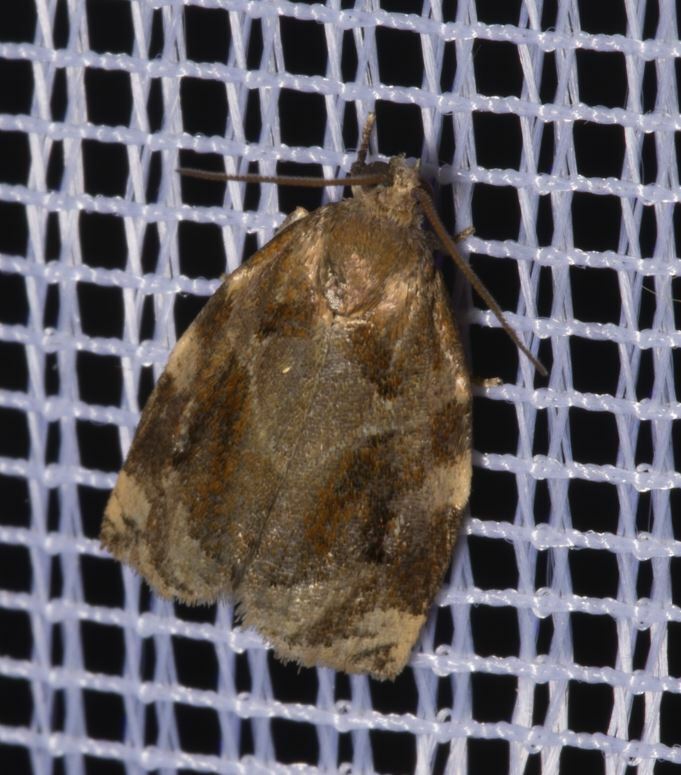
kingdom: Animalia
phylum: Arthropoda
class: Insecta
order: Lepidoptera
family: Tortricidae
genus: Archips
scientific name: Archips xylosteana
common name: Variegated golden tortrix
